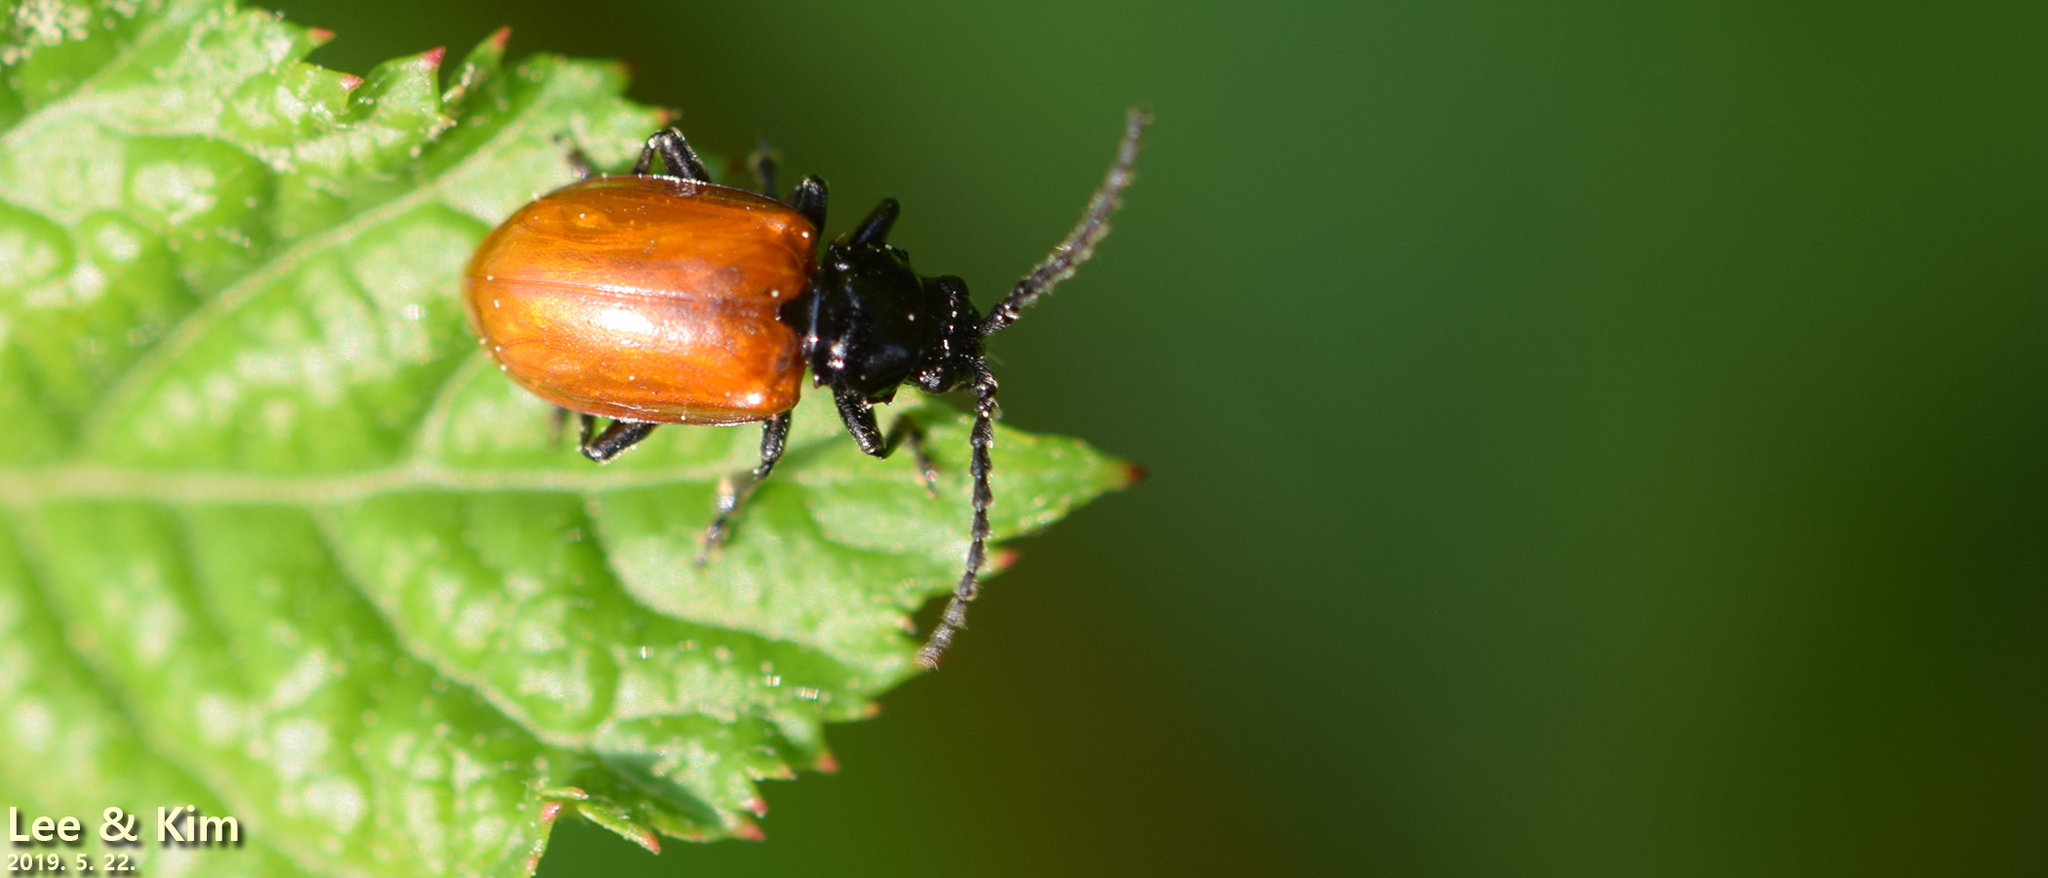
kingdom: Animalia
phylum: Arthropoda
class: Insecta
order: Coleoptera
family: Chrysomelidae
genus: Phygasia
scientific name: Phygasia fulvipennis
